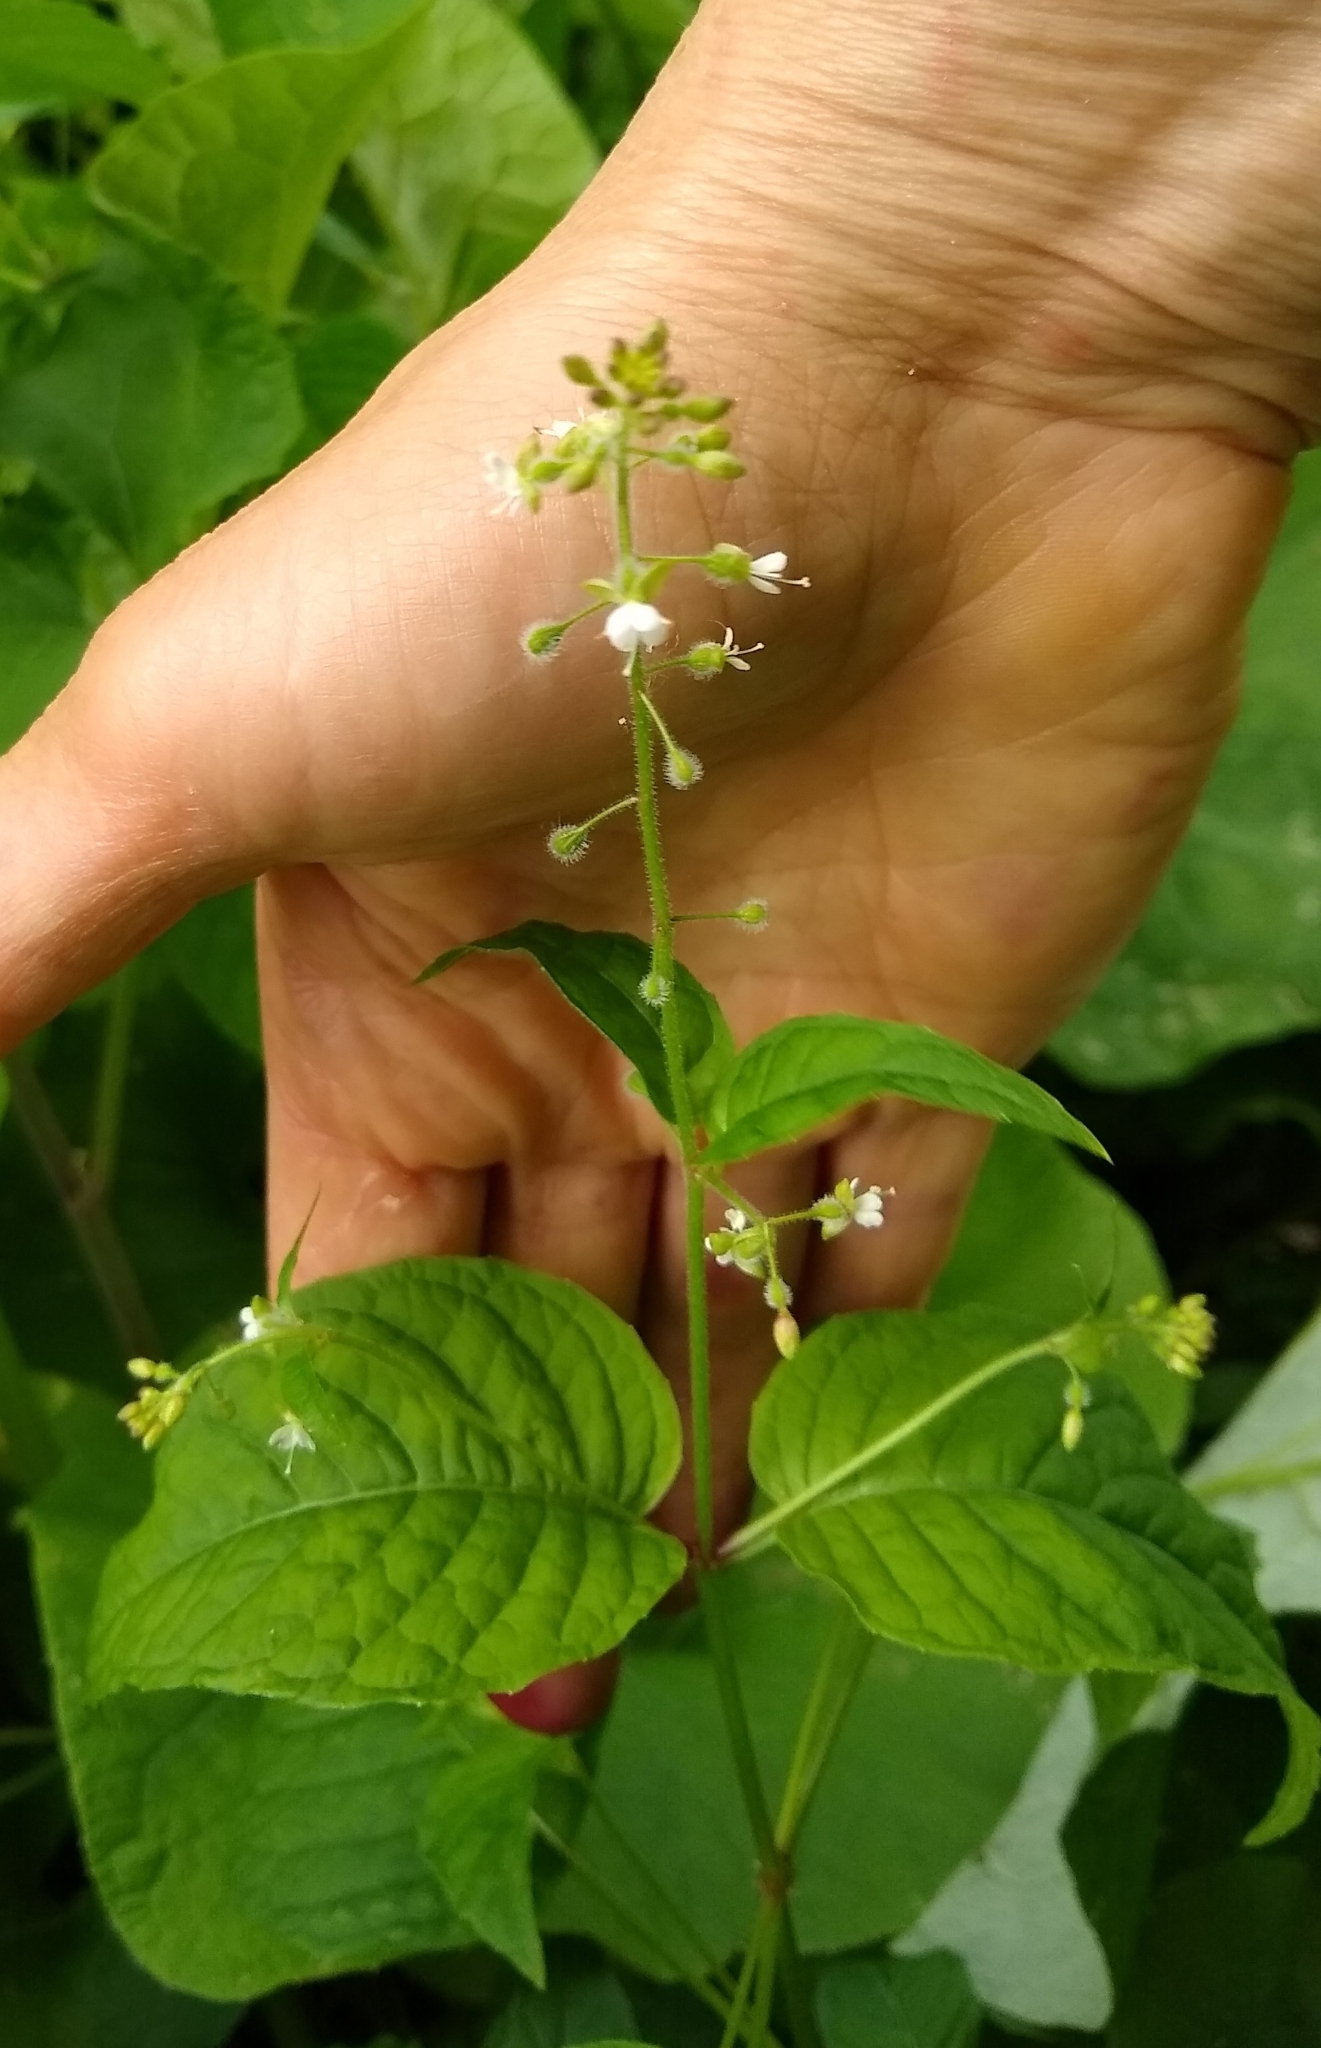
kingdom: Plantae
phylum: Tracheophyta
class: Magnoliopsida
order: Myrtales
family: Onagraceae
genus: Circaea
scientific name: Circaea canadensis
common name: Broad-leaved enchanter's nightshade
